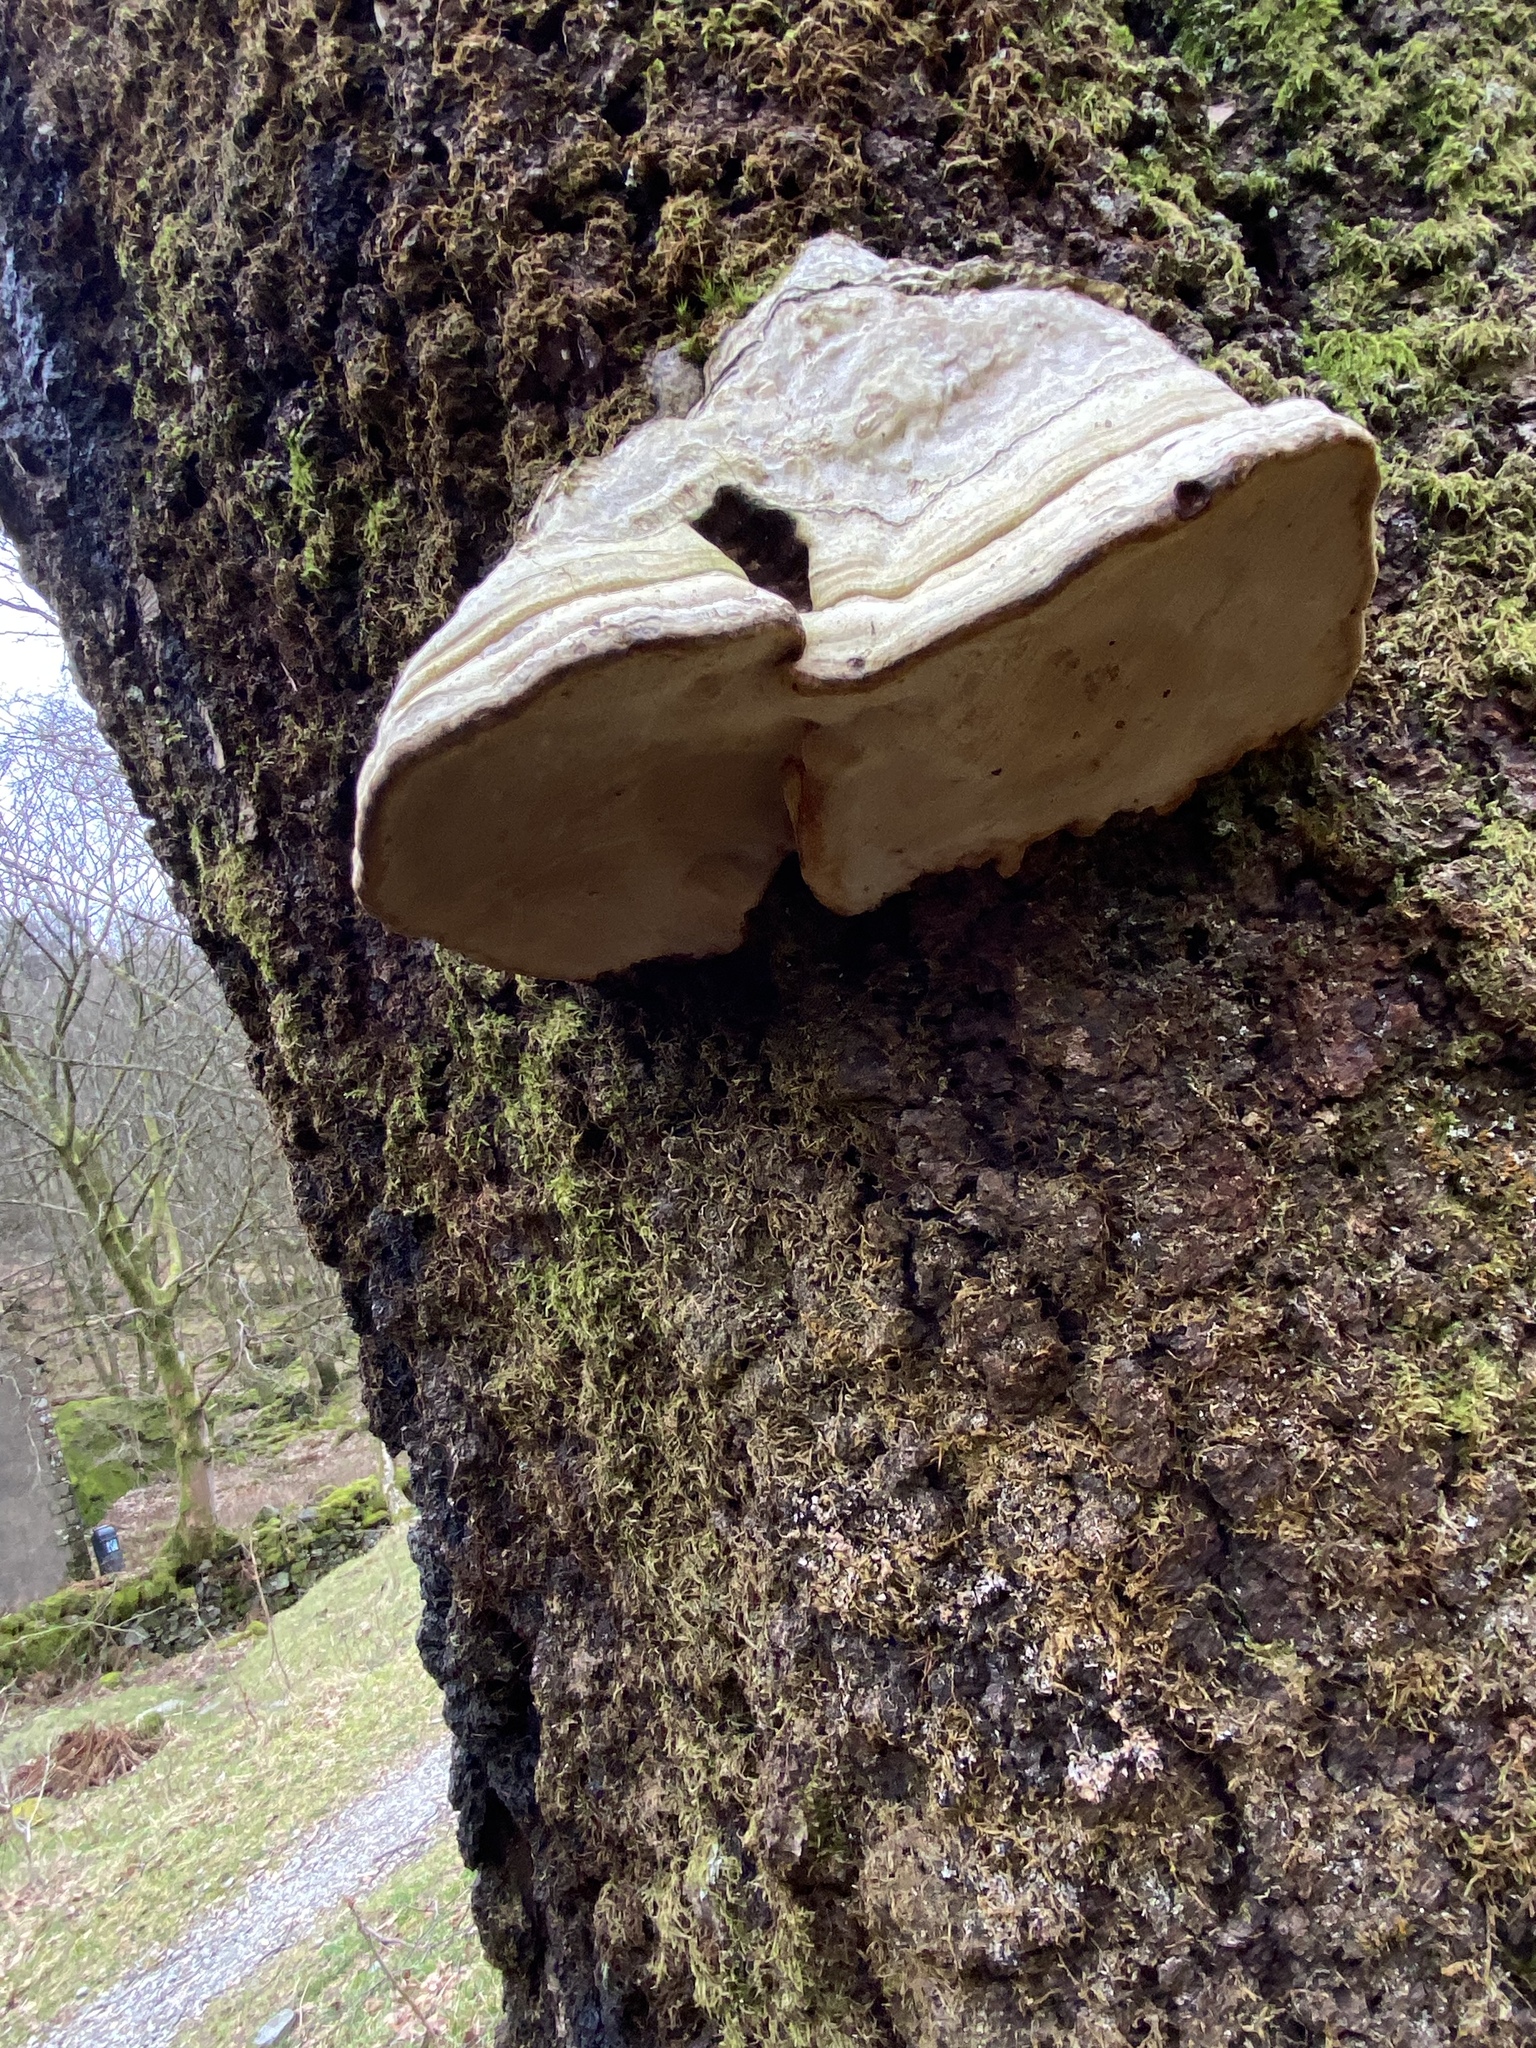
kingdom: Fungi
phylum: Basidiomycota
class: Agaricomycetes
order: Polyporales
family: Polyporaceae
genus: Fomes
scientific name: Fomes fomentarius
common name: Hoof fungus
